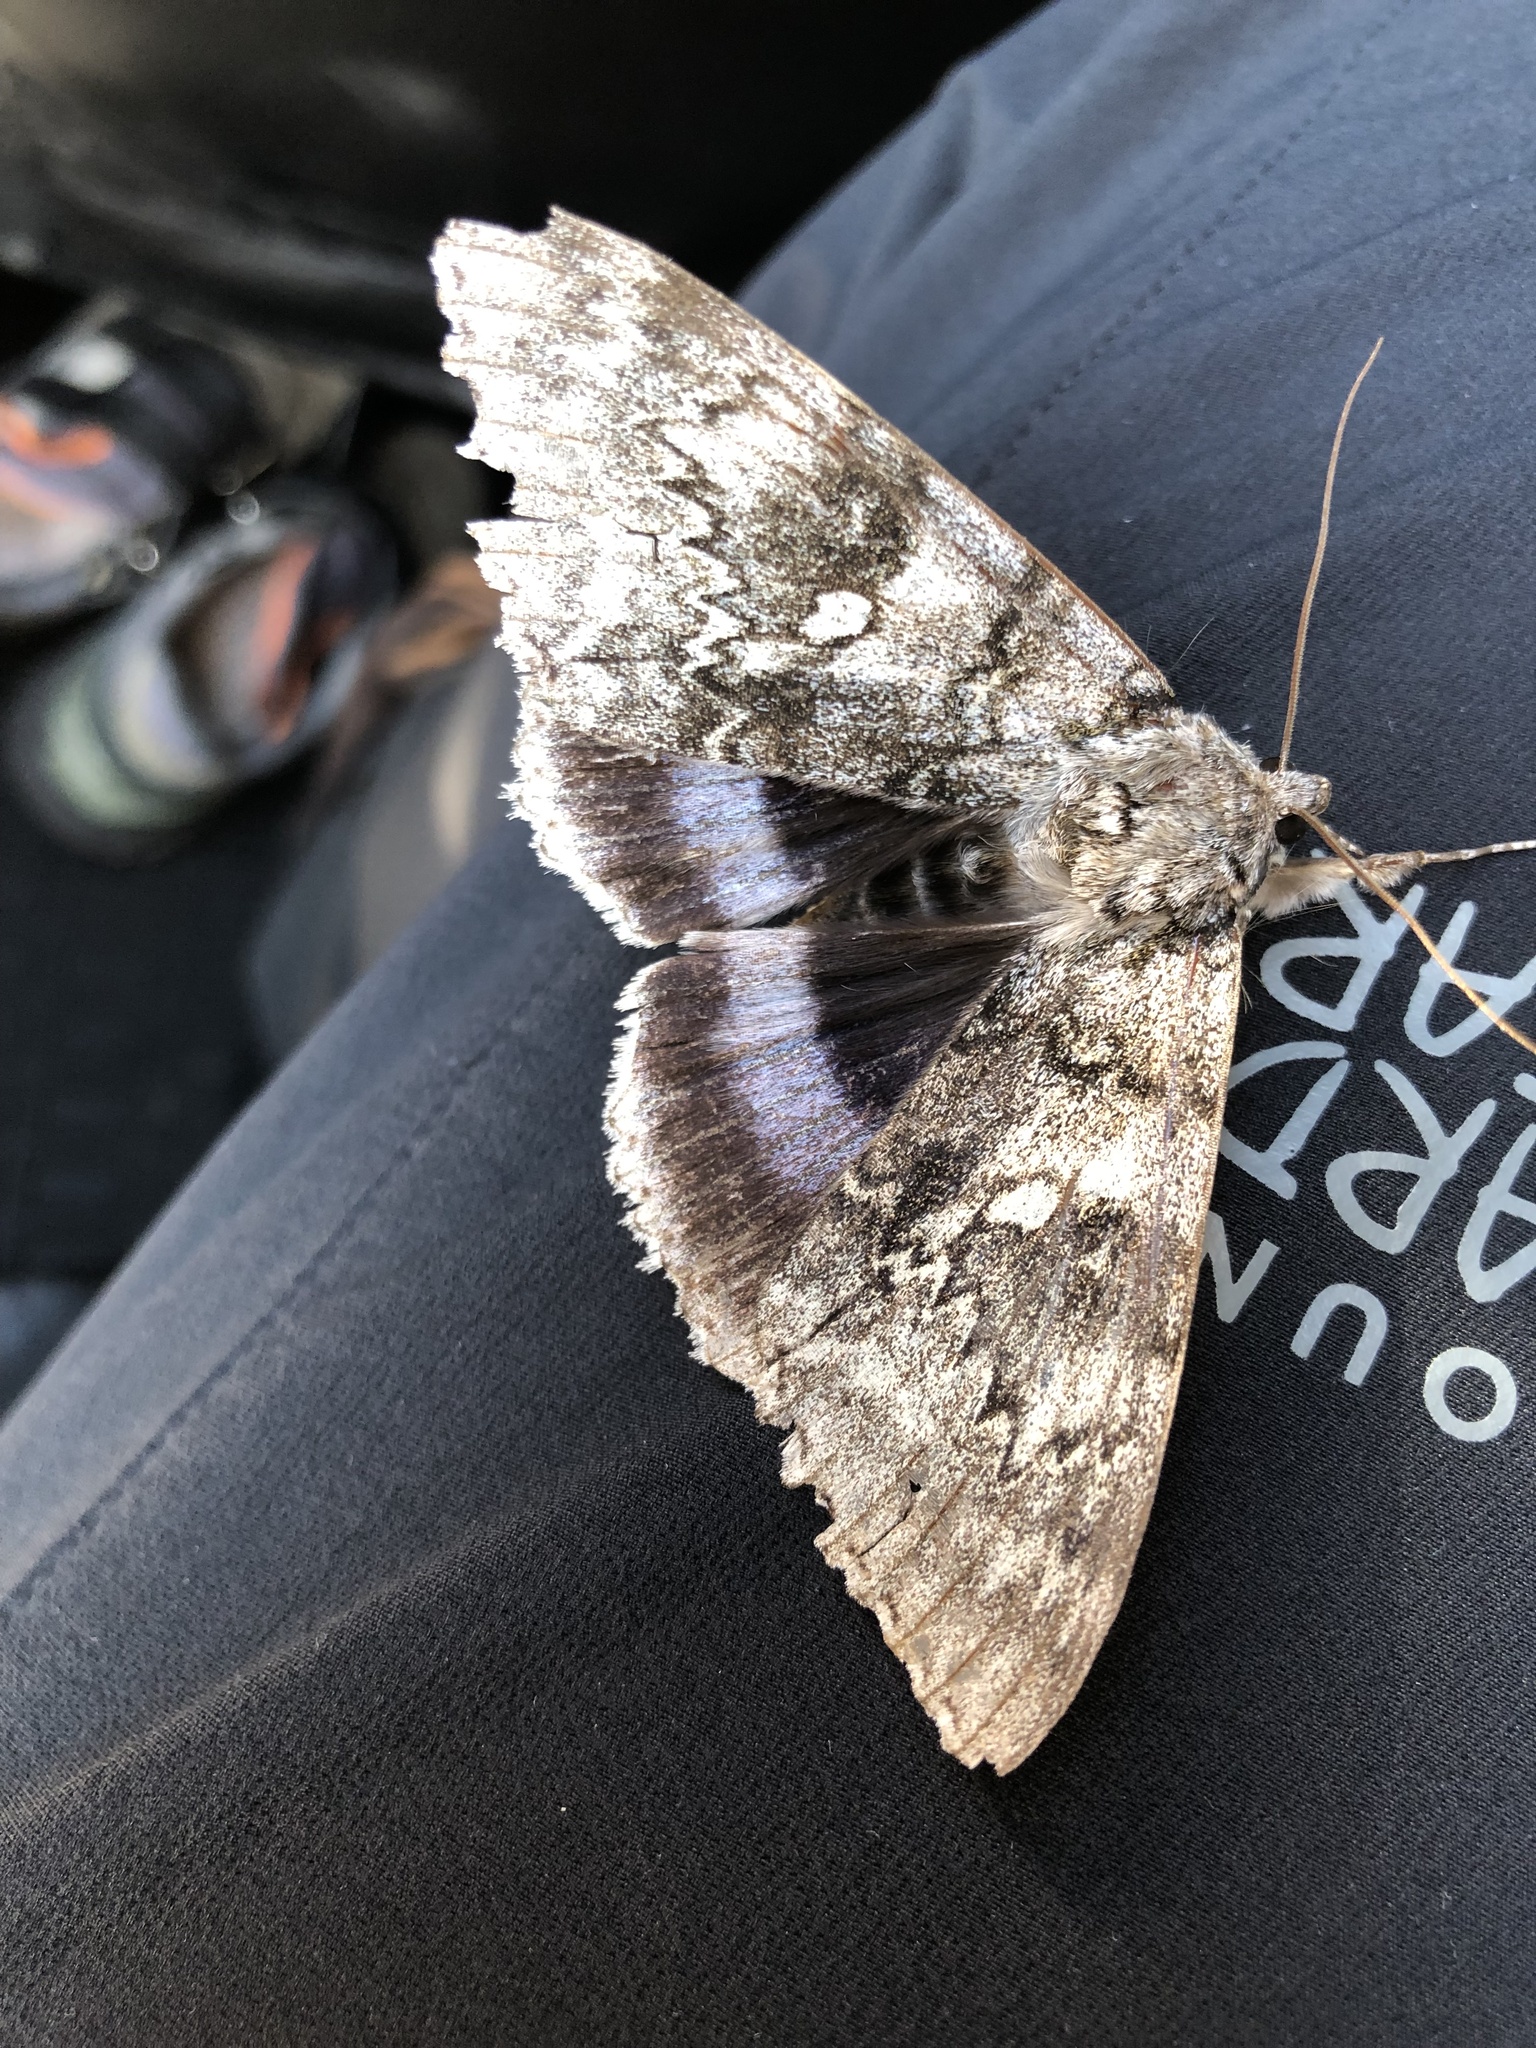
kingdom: Animalia
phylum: Arthropoda
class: Insecta
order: Lepidoptera
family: Erebidae
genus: Catocala
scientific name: Catocala fraxini
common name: Clifden nonpareil
